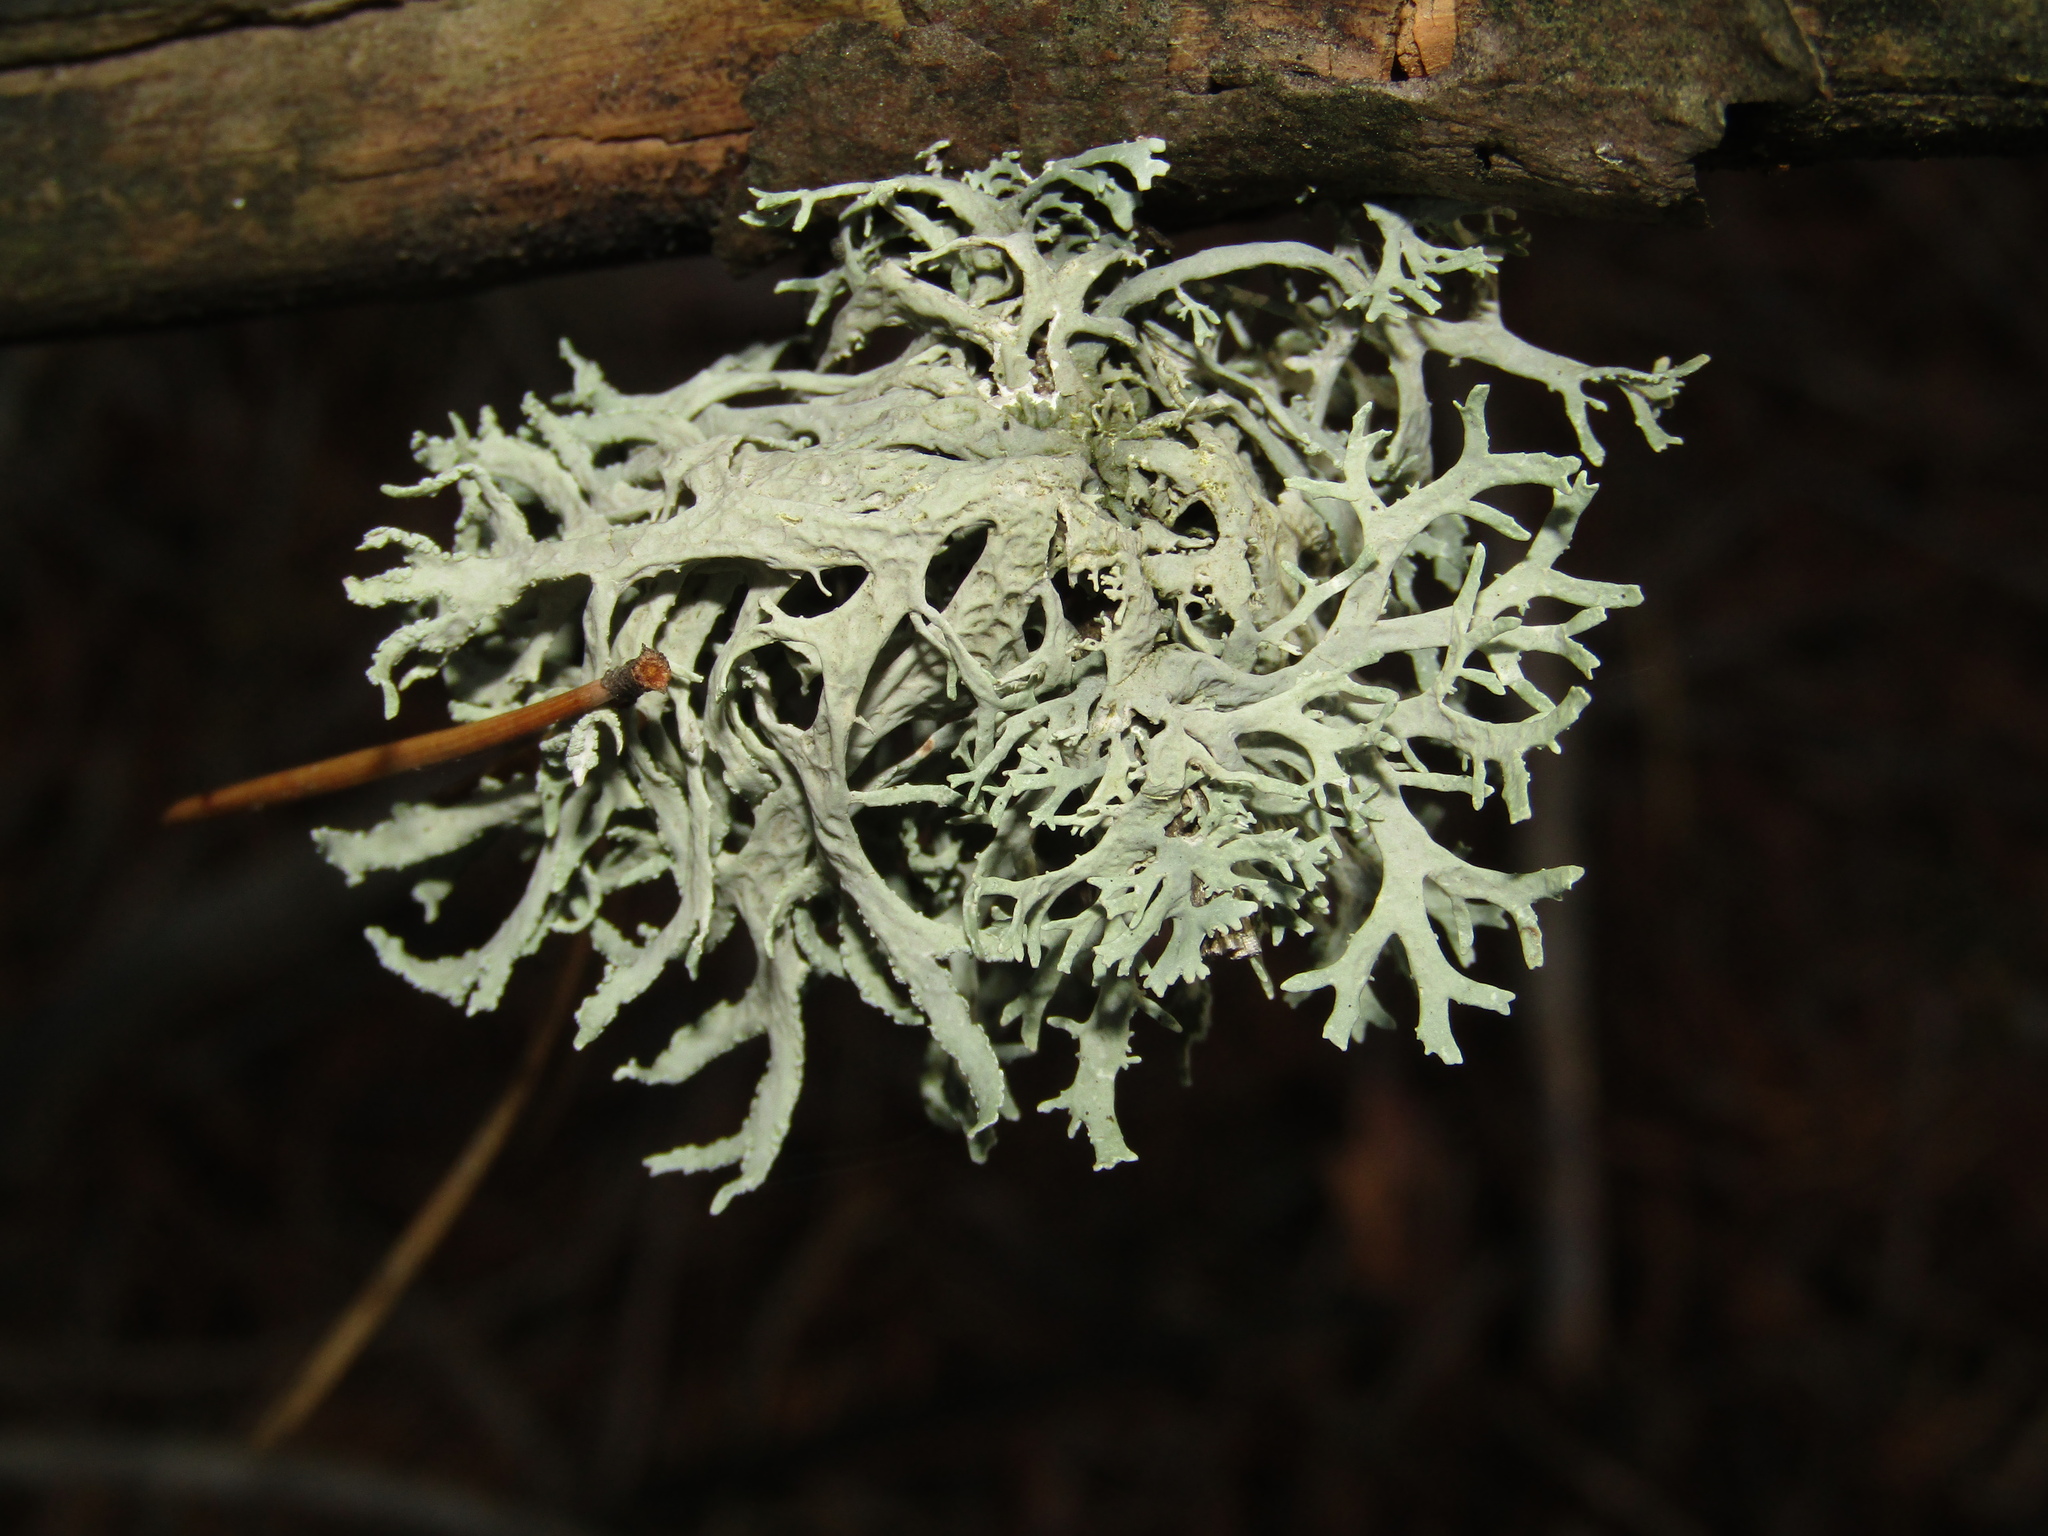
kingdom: Fungi
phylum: Ascomycota
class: Lecanoromycetes
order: Lecanorales
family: Parmeliaceae
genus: Evernia
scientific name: Evernia prunastri
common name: Oak moss
